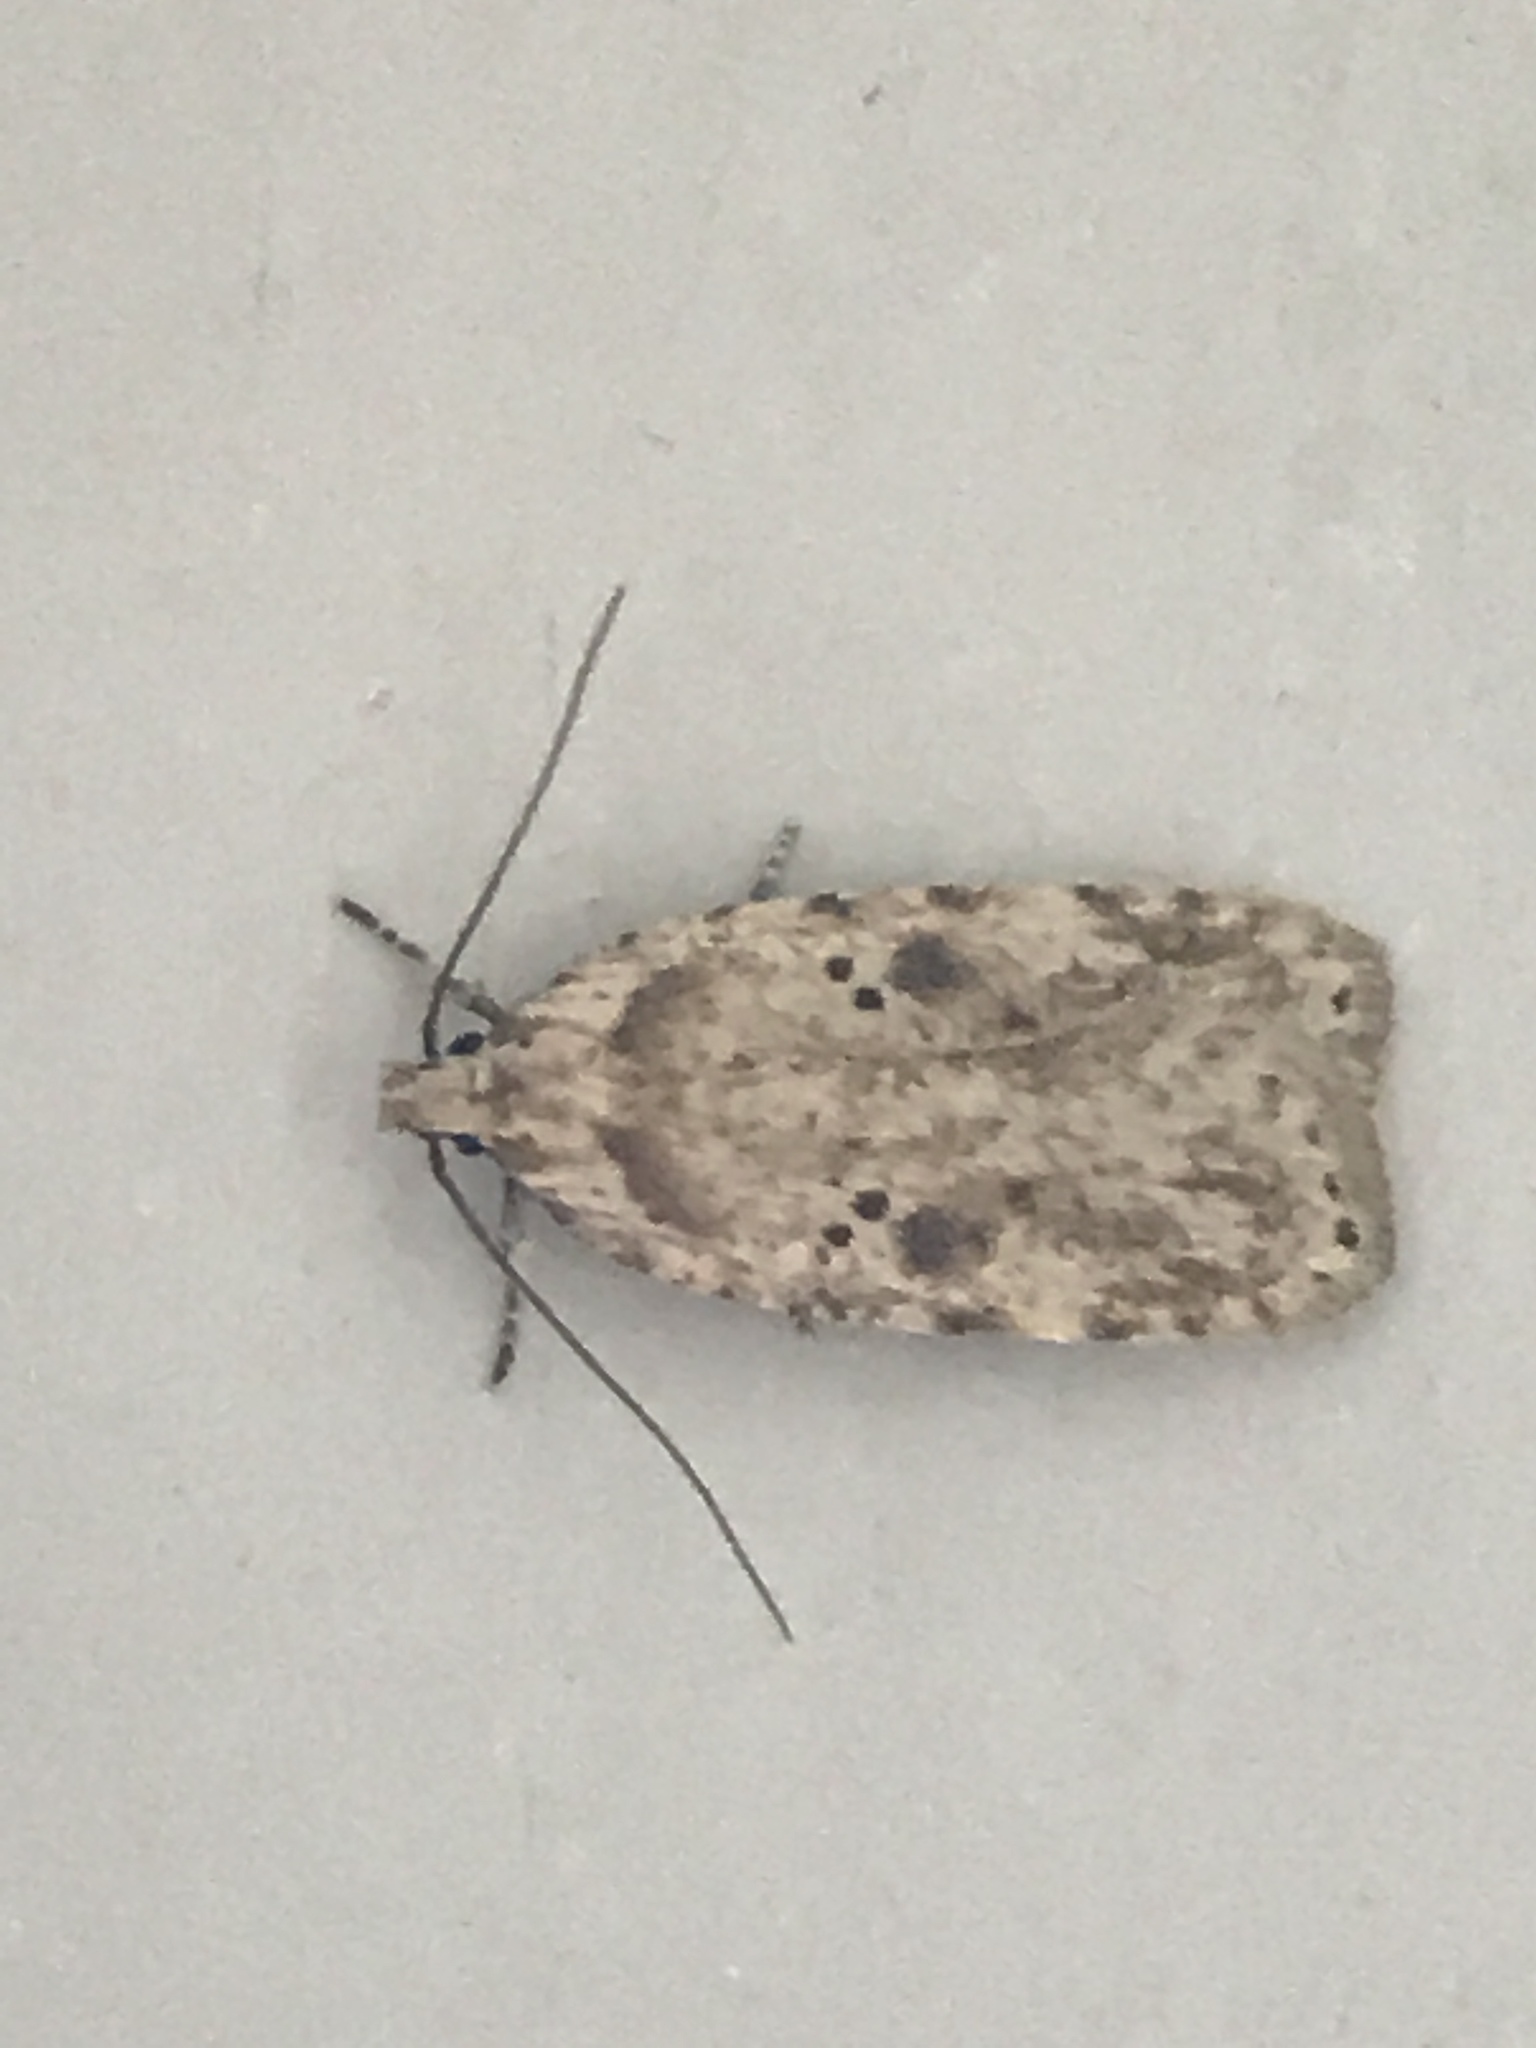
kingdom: Animalia
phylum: Arthropoda
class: Insecta
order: Lepidoptera
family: Depressariidae
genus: Agonopterix
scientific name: Agonopterix arenella
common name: Brindled flat-body
